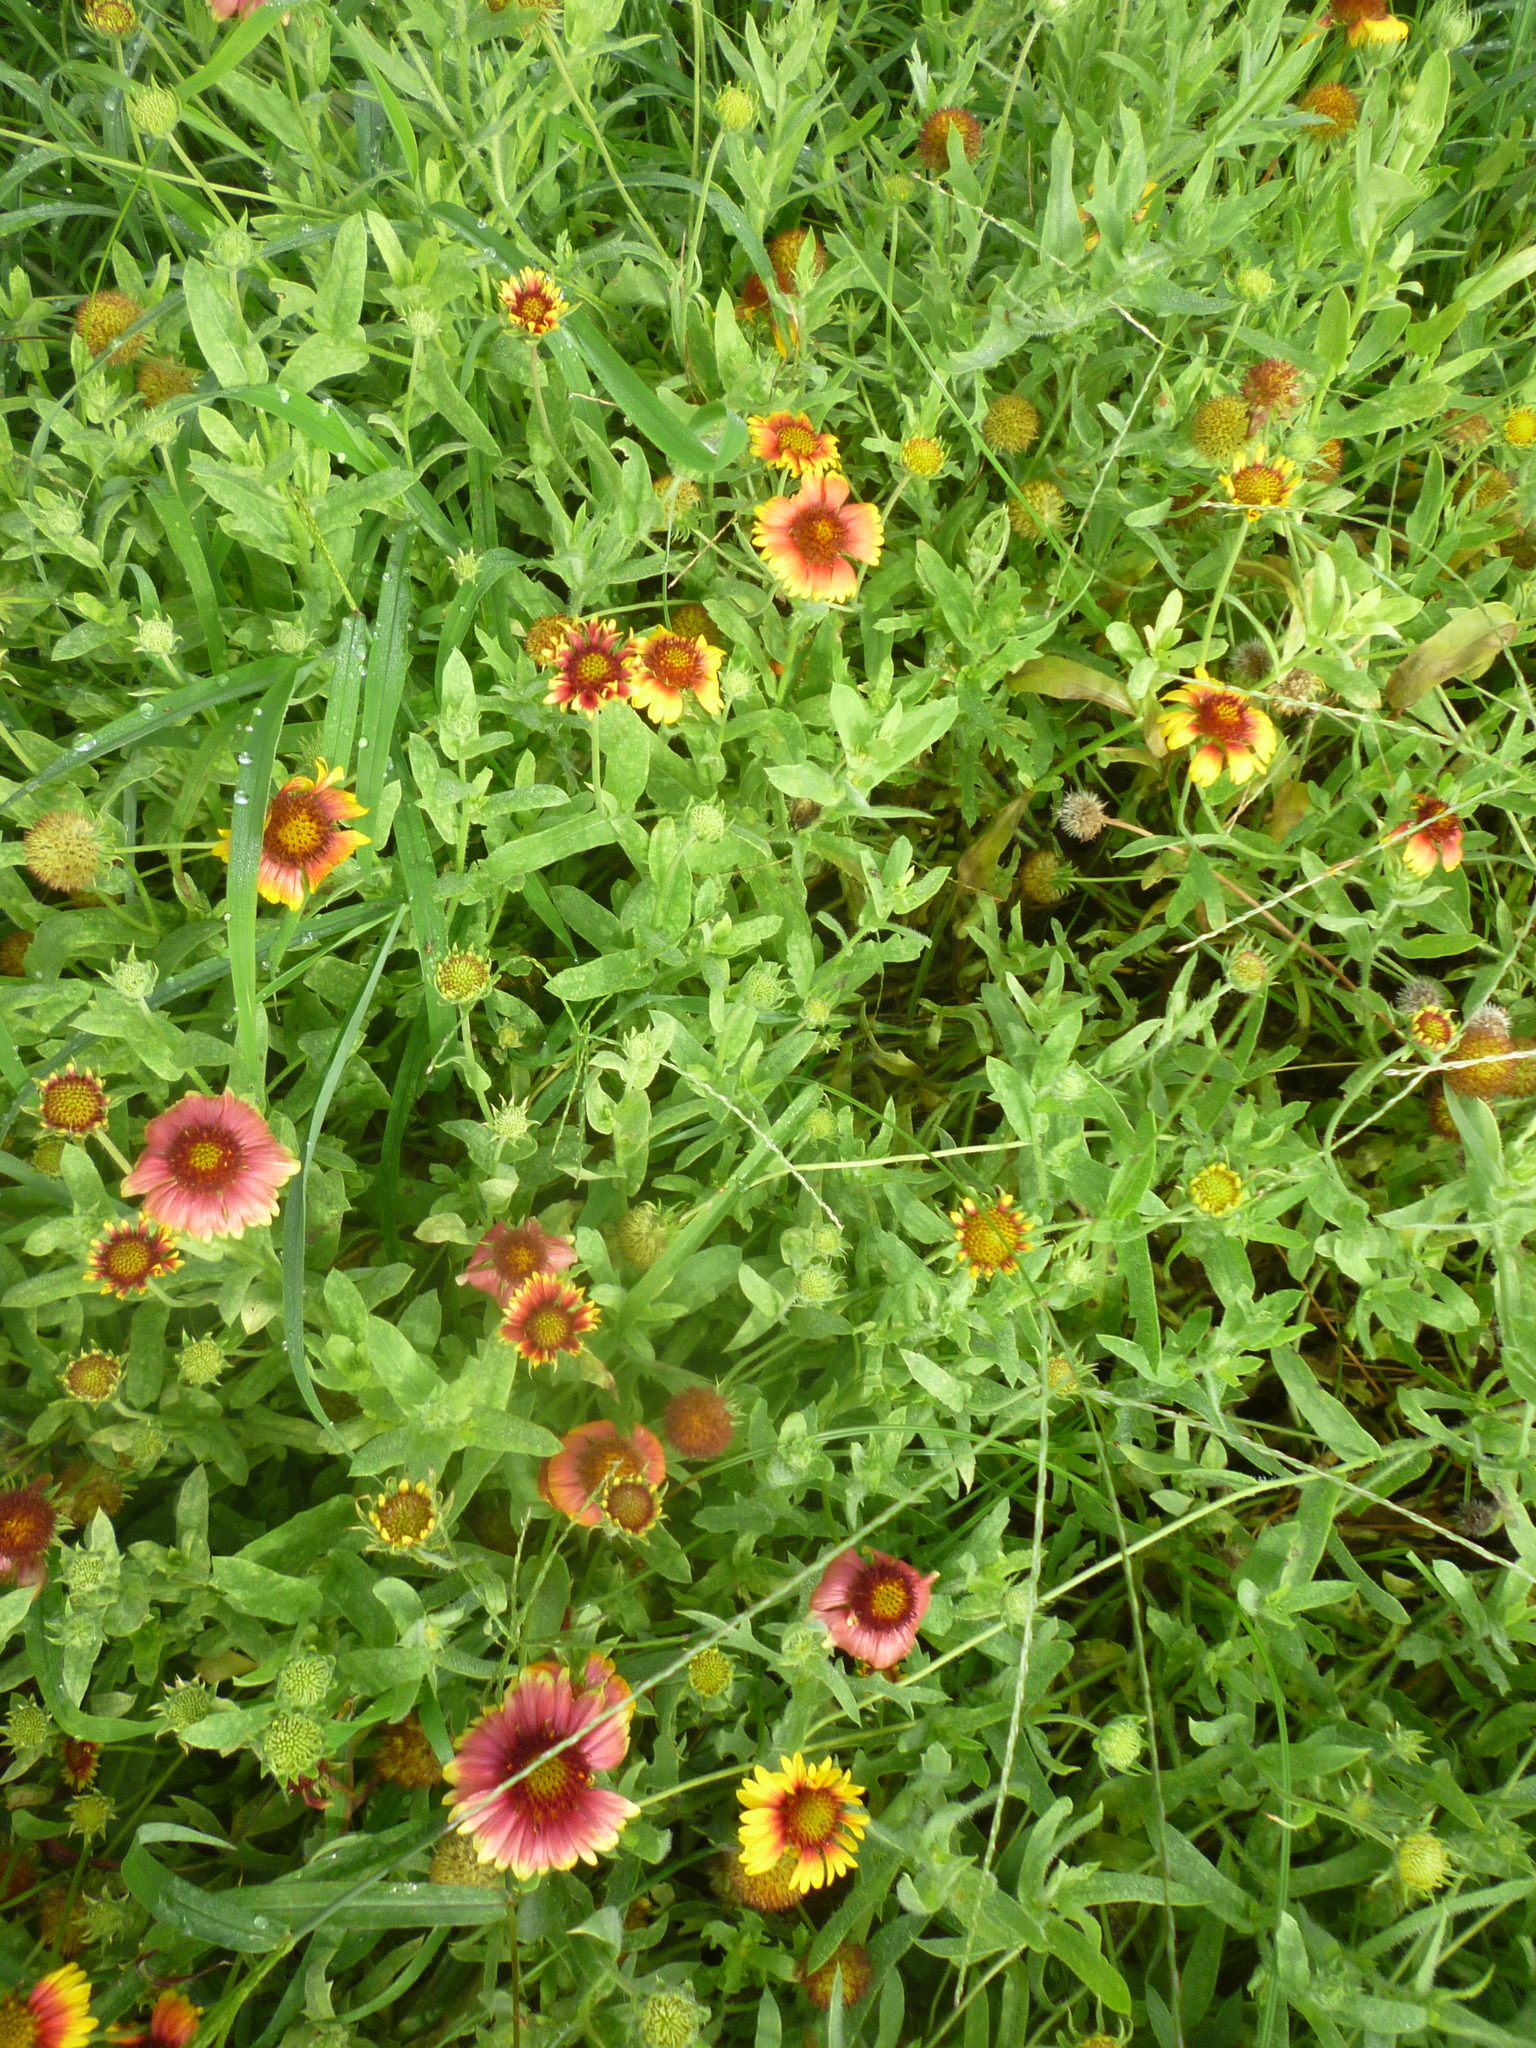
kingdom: Plantae
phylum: Tracheophyta
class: Magnoliopsida
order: Asterales
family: Asteraceae
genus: Gaillardia
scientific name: Gaillardia pulchella
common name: Firewheel
